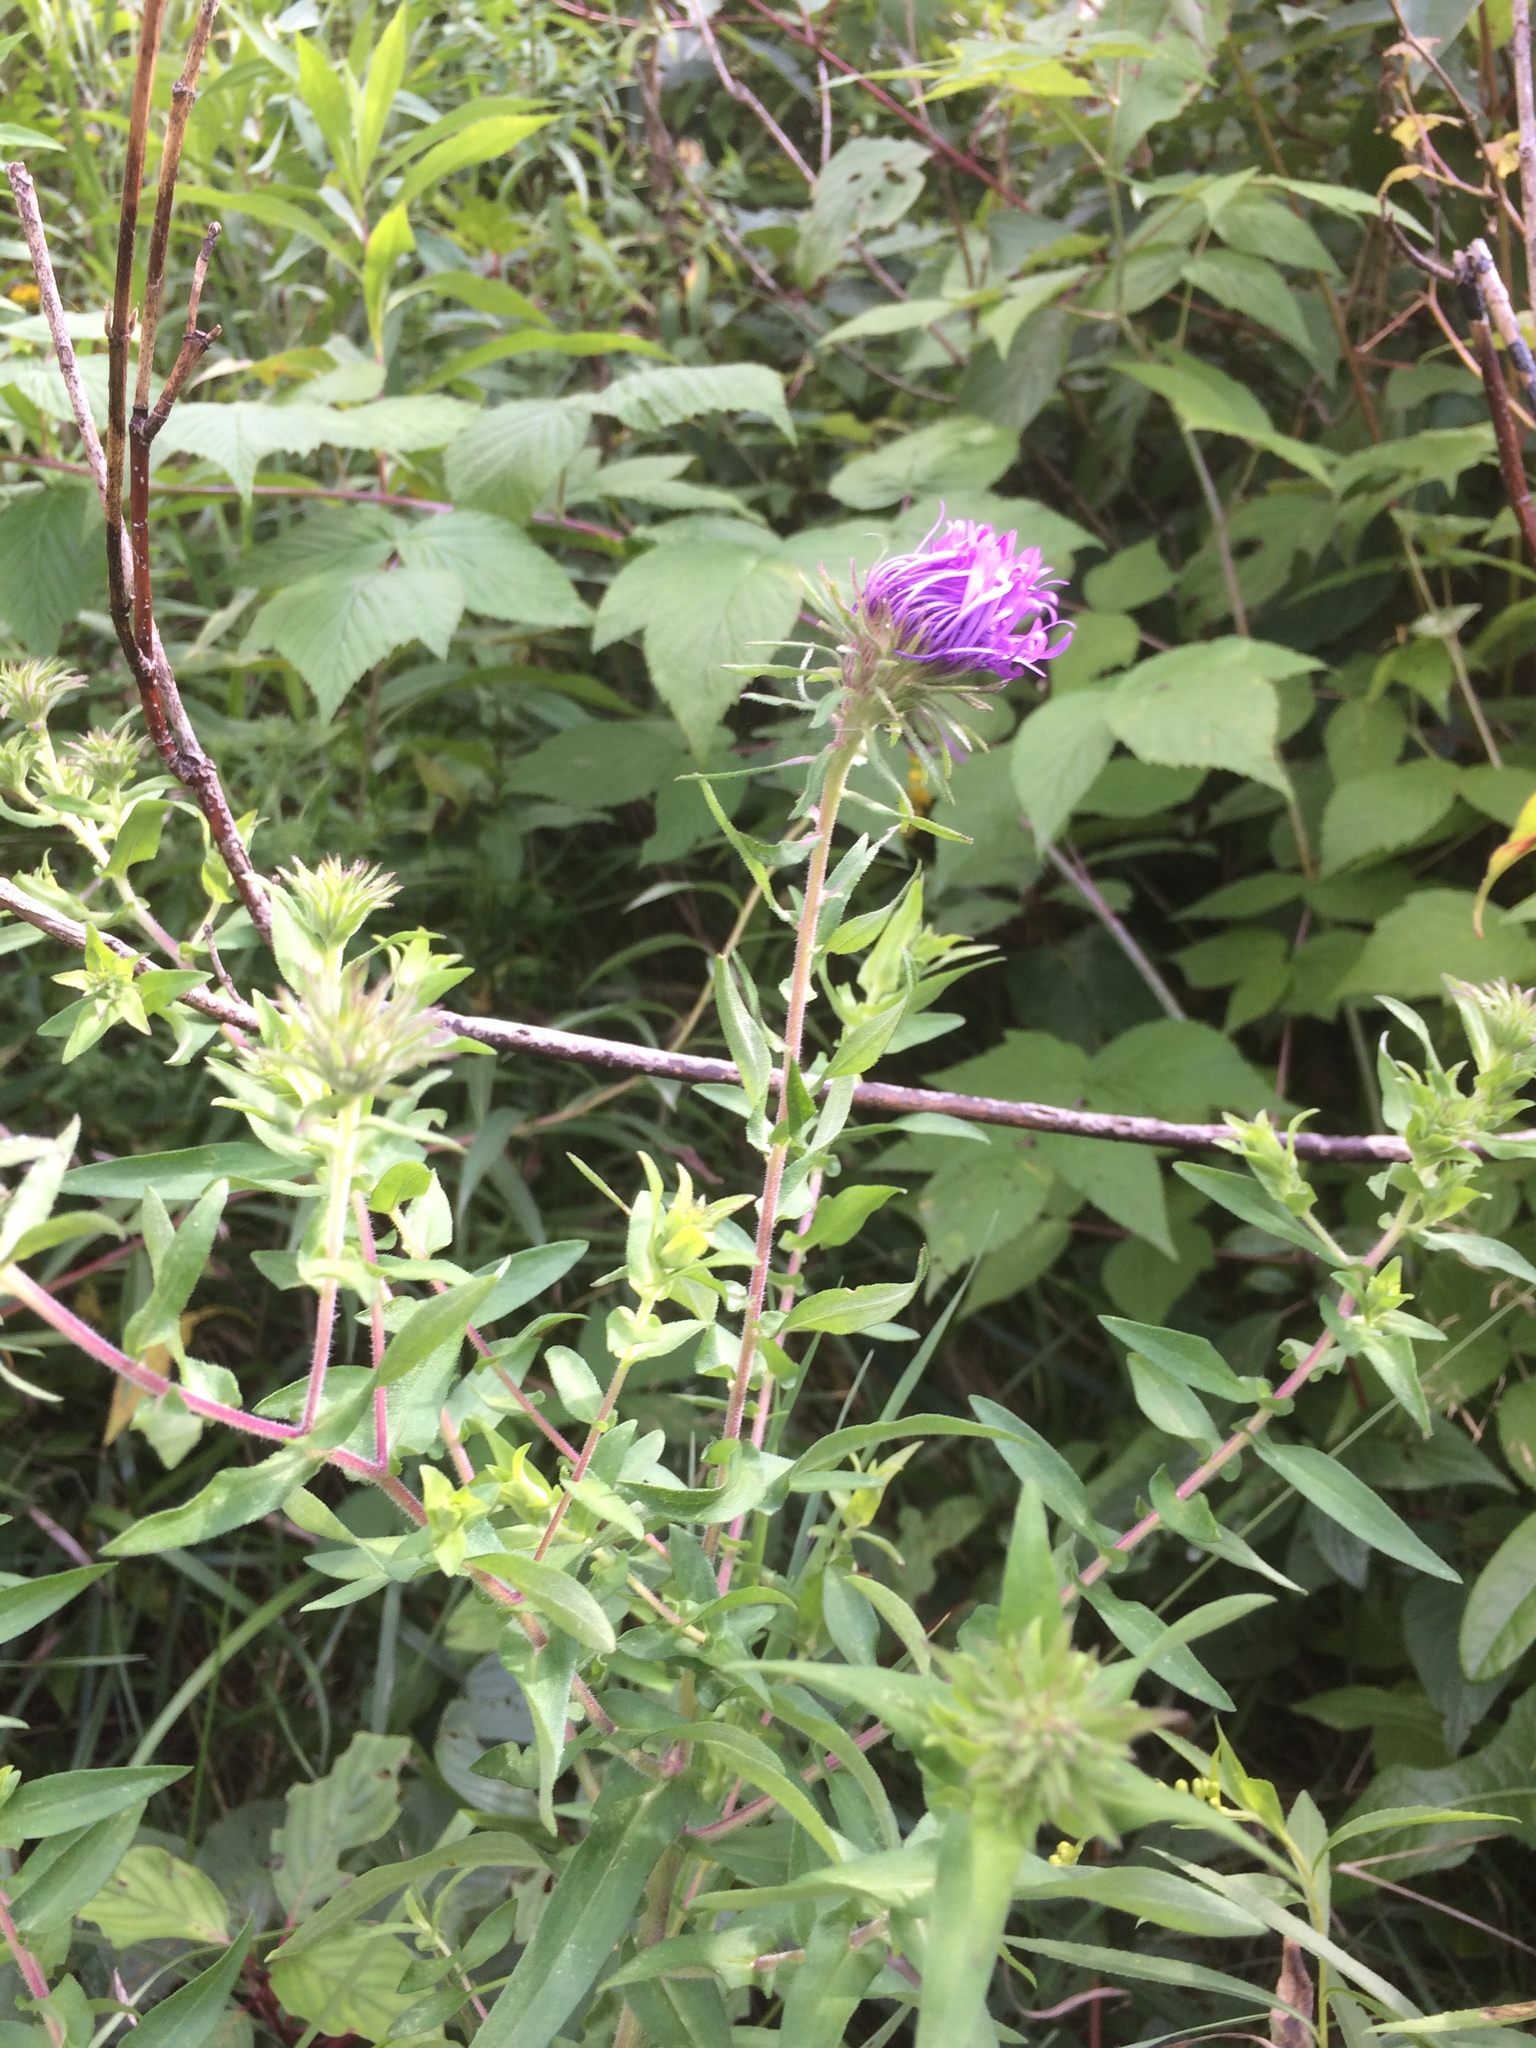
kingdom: Plantae
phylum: Tracheophyta
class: Magnoliopsida
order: Asterales
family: Asteraceae
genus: Symphyotrichum
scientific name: Symphyotrichum novae-angliae
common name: Michaelmas daisy
